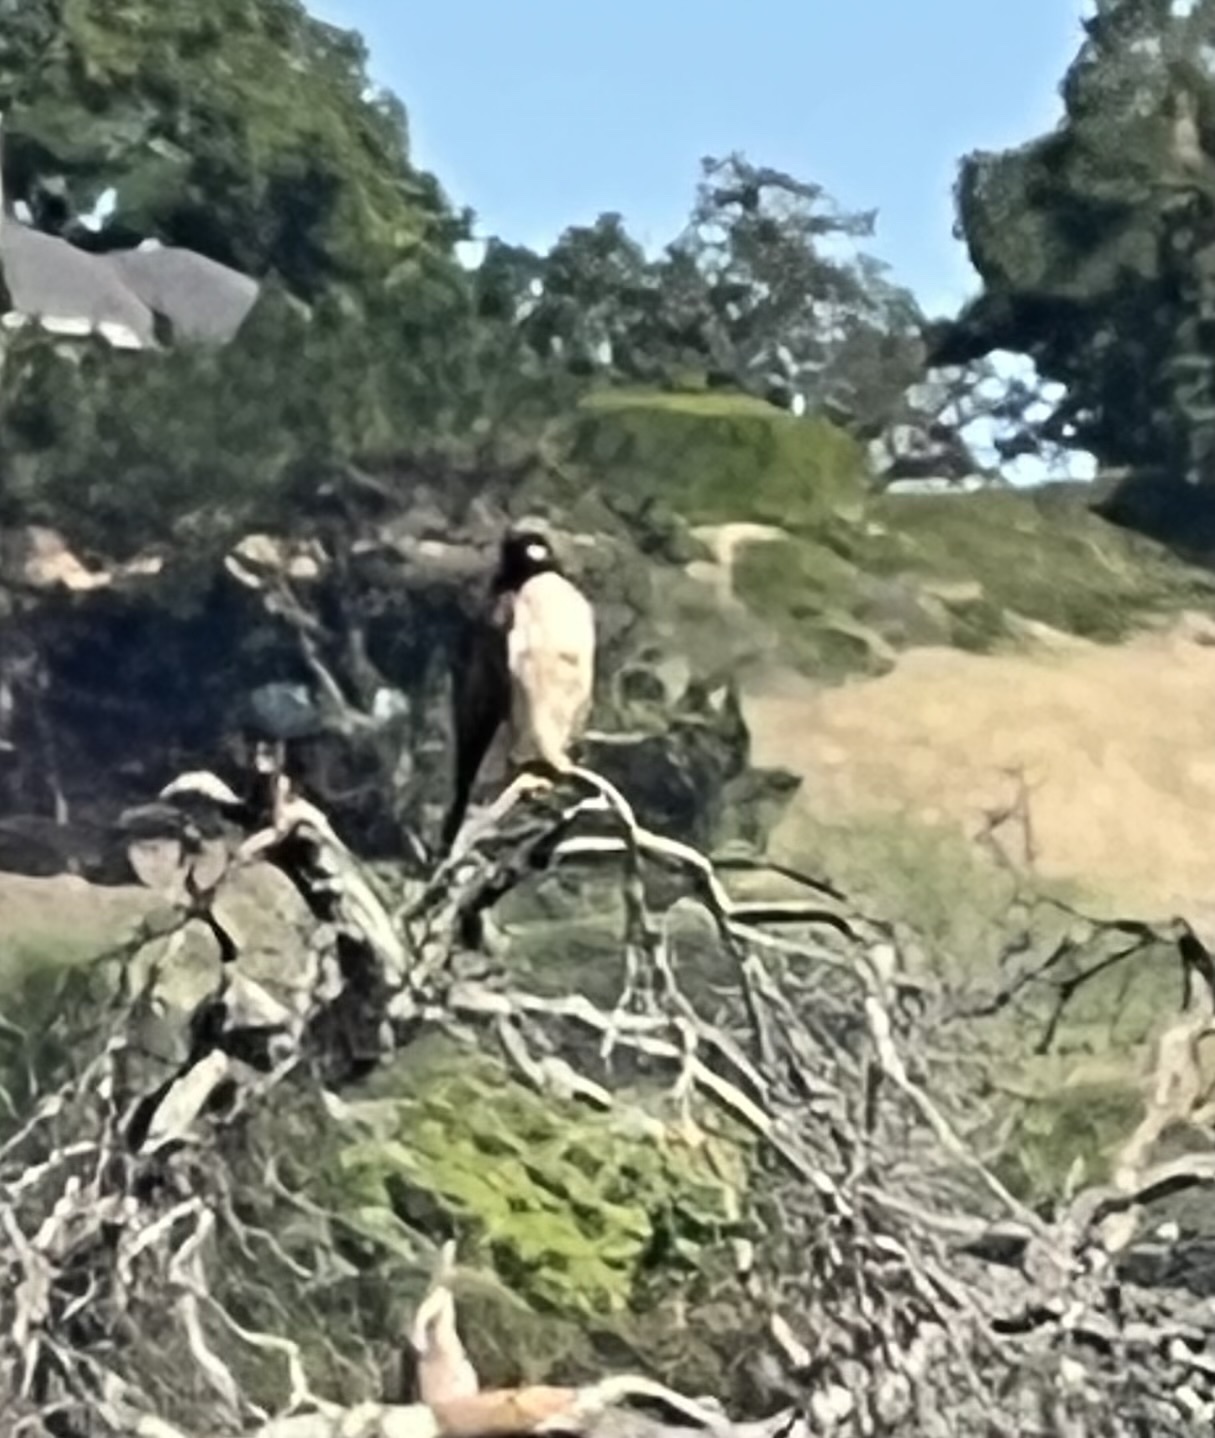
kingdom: Animalia
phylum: Chordata
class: Aves
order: Accipitriformes
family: Accipitridae
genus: Buteo
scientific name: Buteo jamaicensis
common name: Red-tailed hawk
